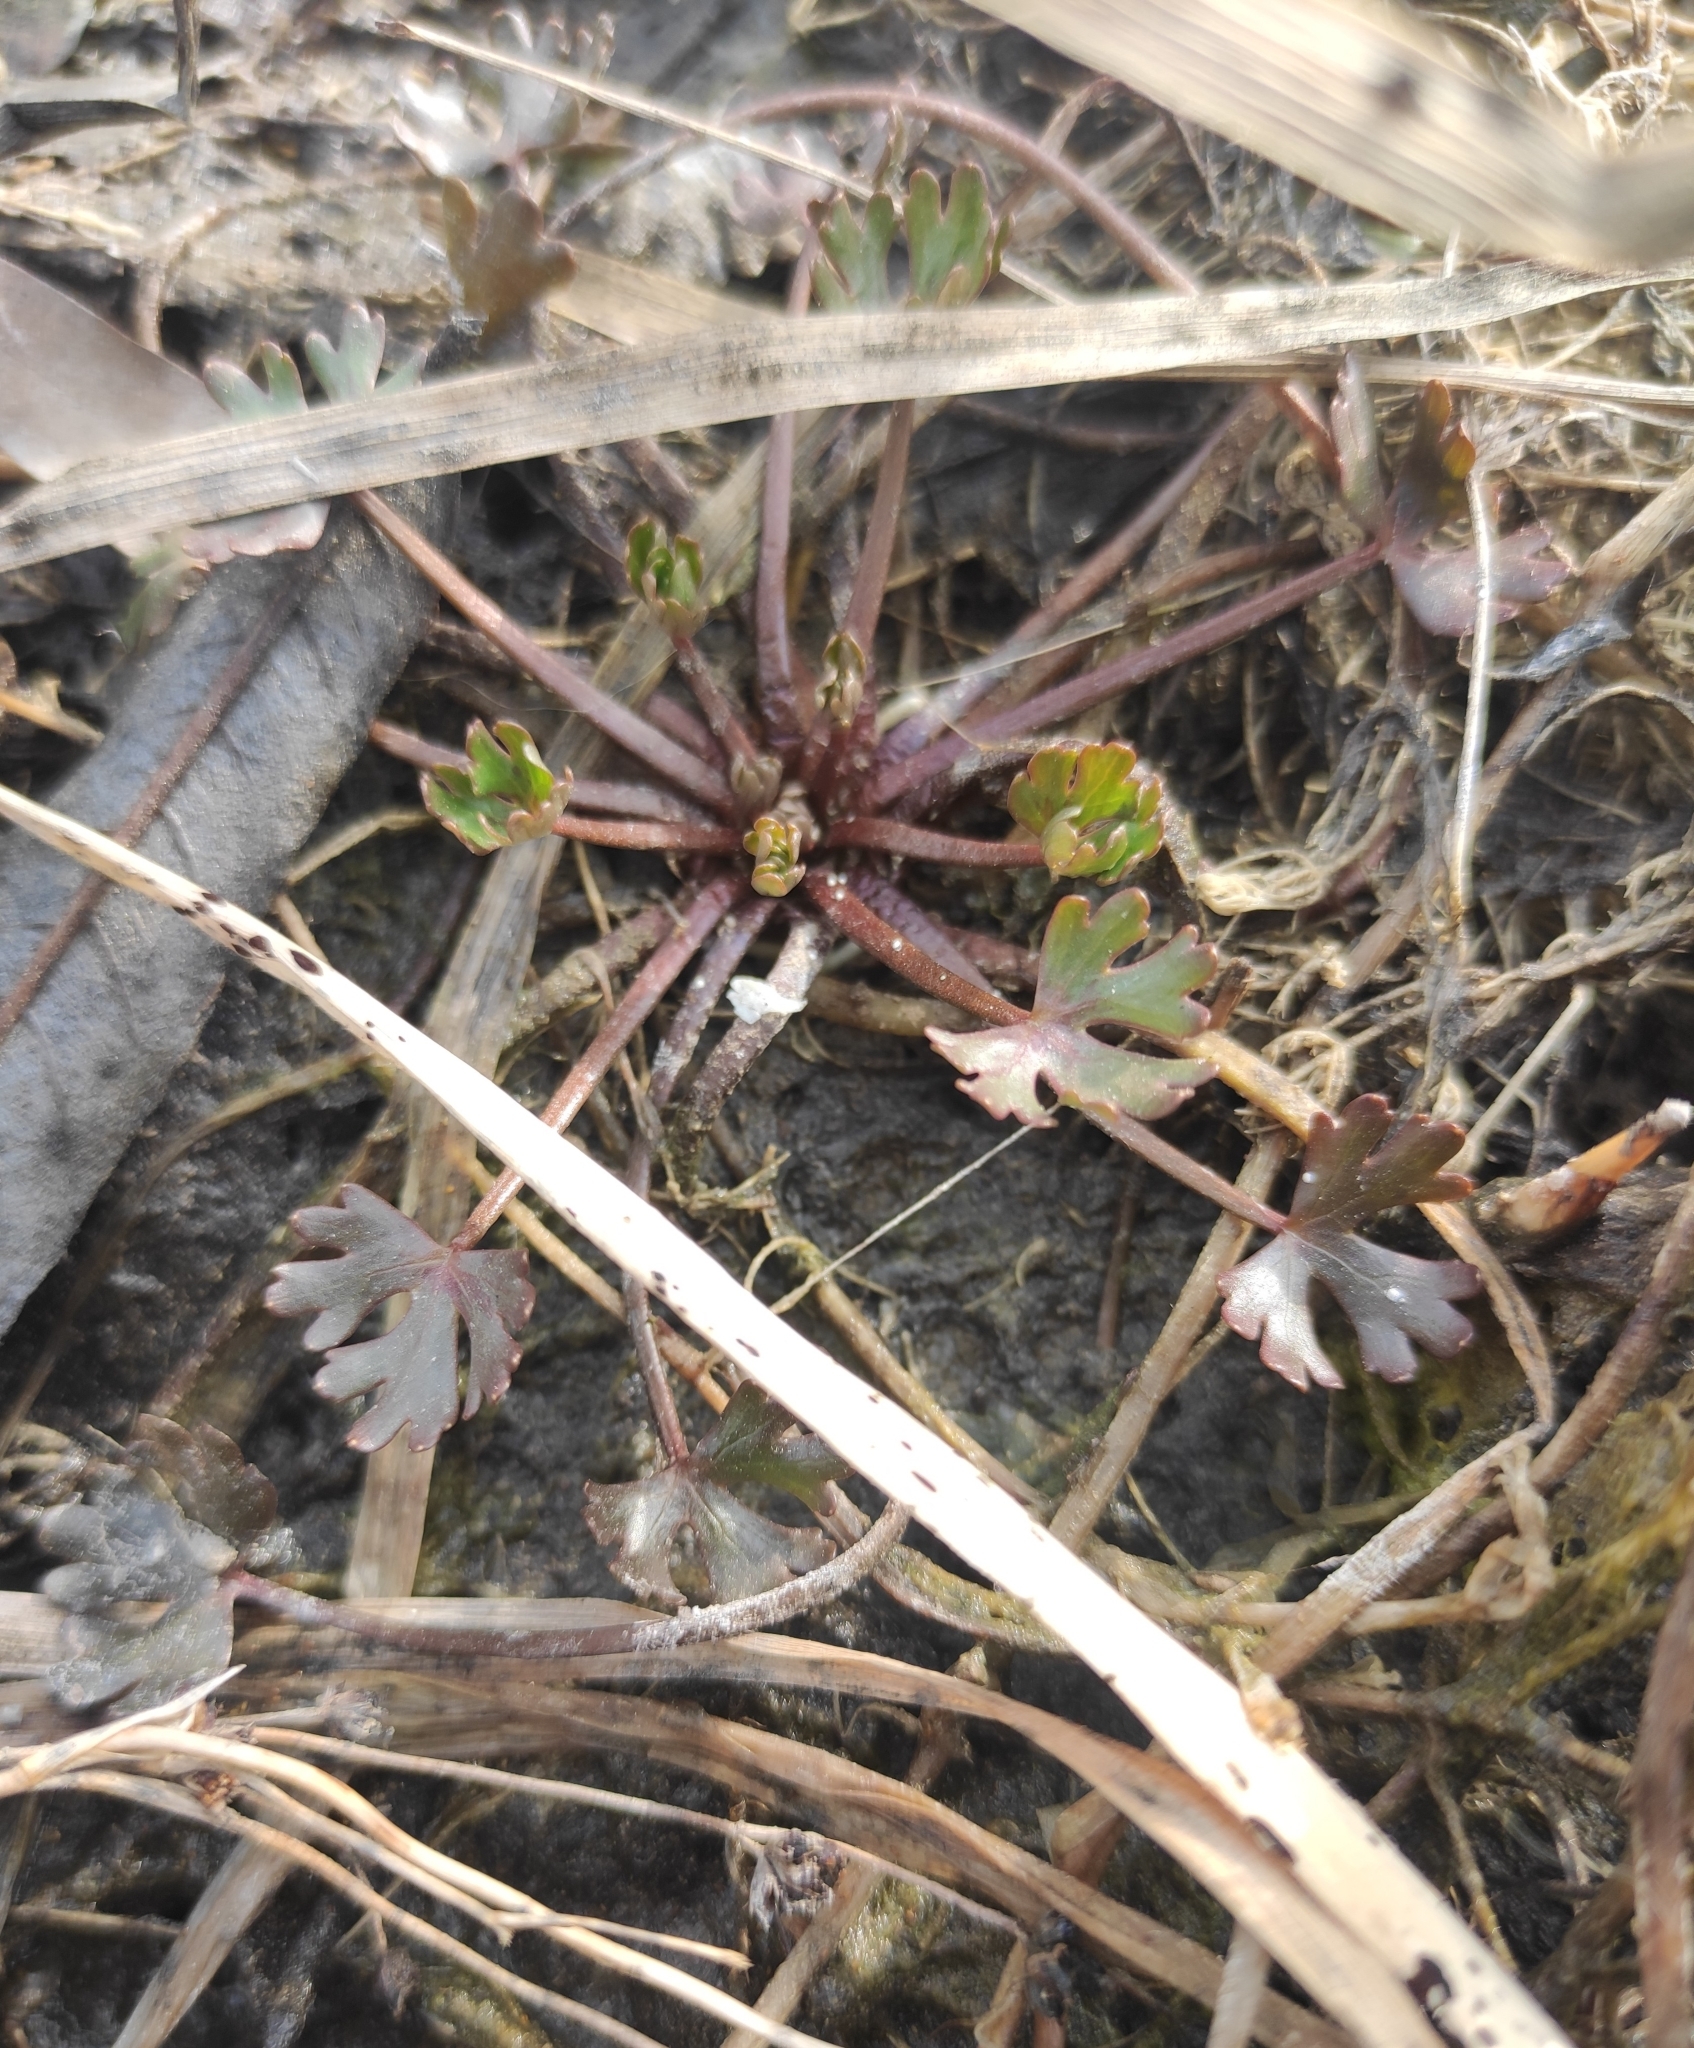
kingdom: Plantae
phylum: Tracheophyta
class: Magnoliopsida
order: Ranunculales
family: Ranunculaceae
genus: Ranunculus
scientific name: Ranunculus sceleratus
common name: Celery-leaved buttercup
